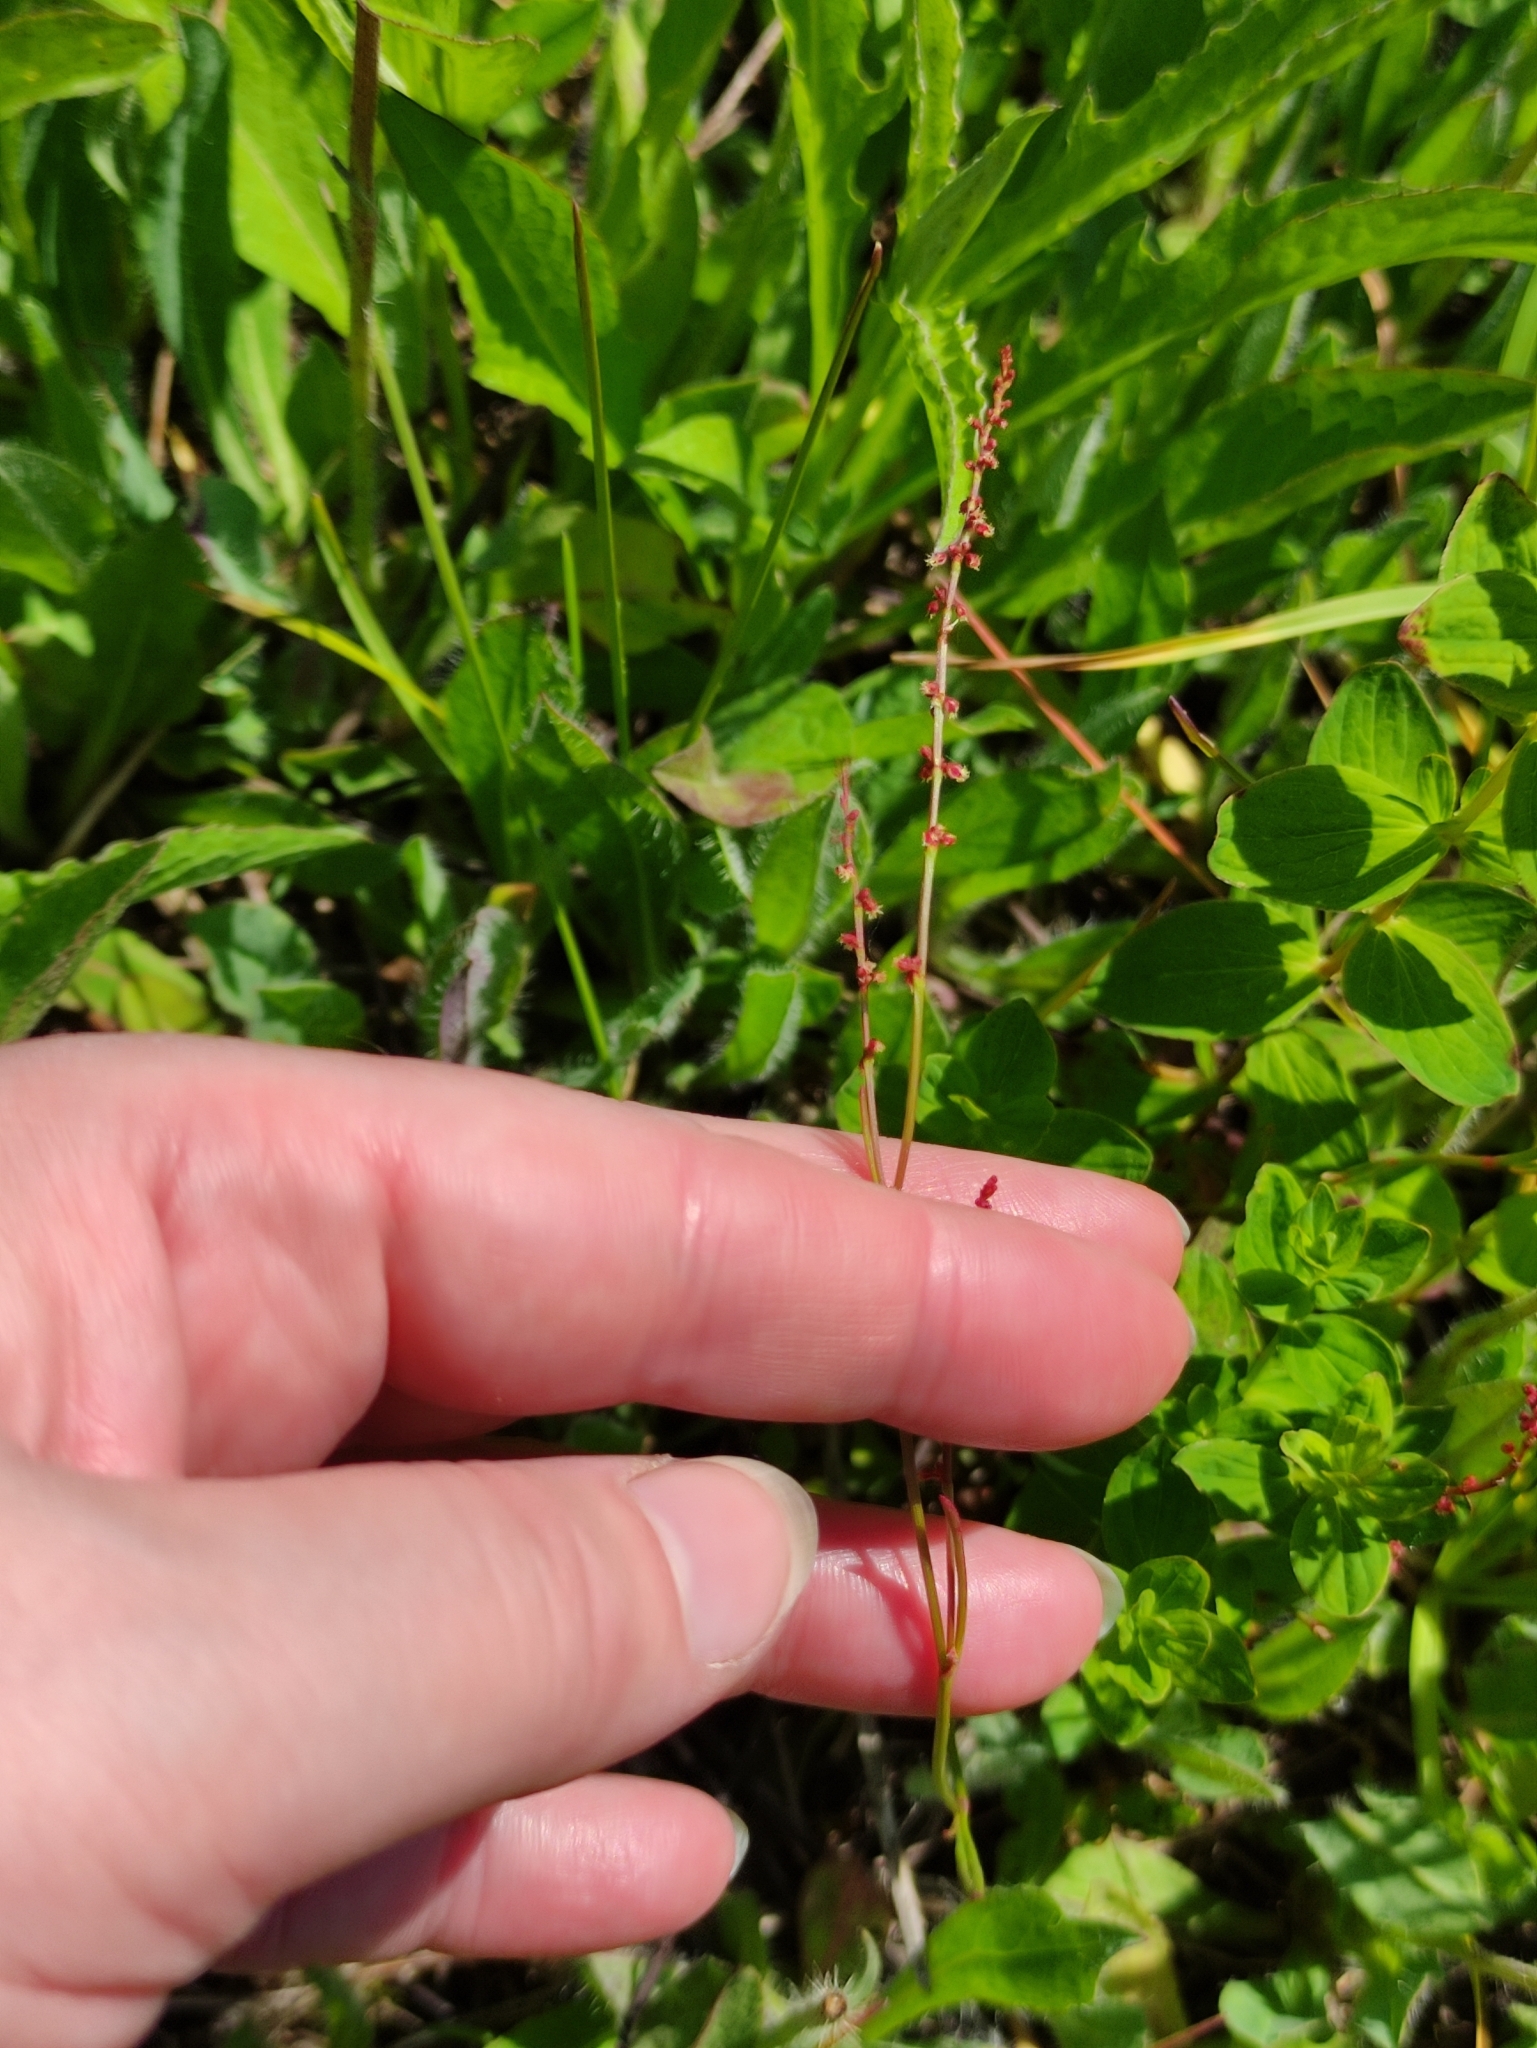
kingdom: Plantae
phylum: Tracheophyta
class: Magnoliopsida
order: Caryophyllales
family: Polygonaceae
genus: Rumex
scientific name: Rumex acetosella
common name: Common sheep sorrel
